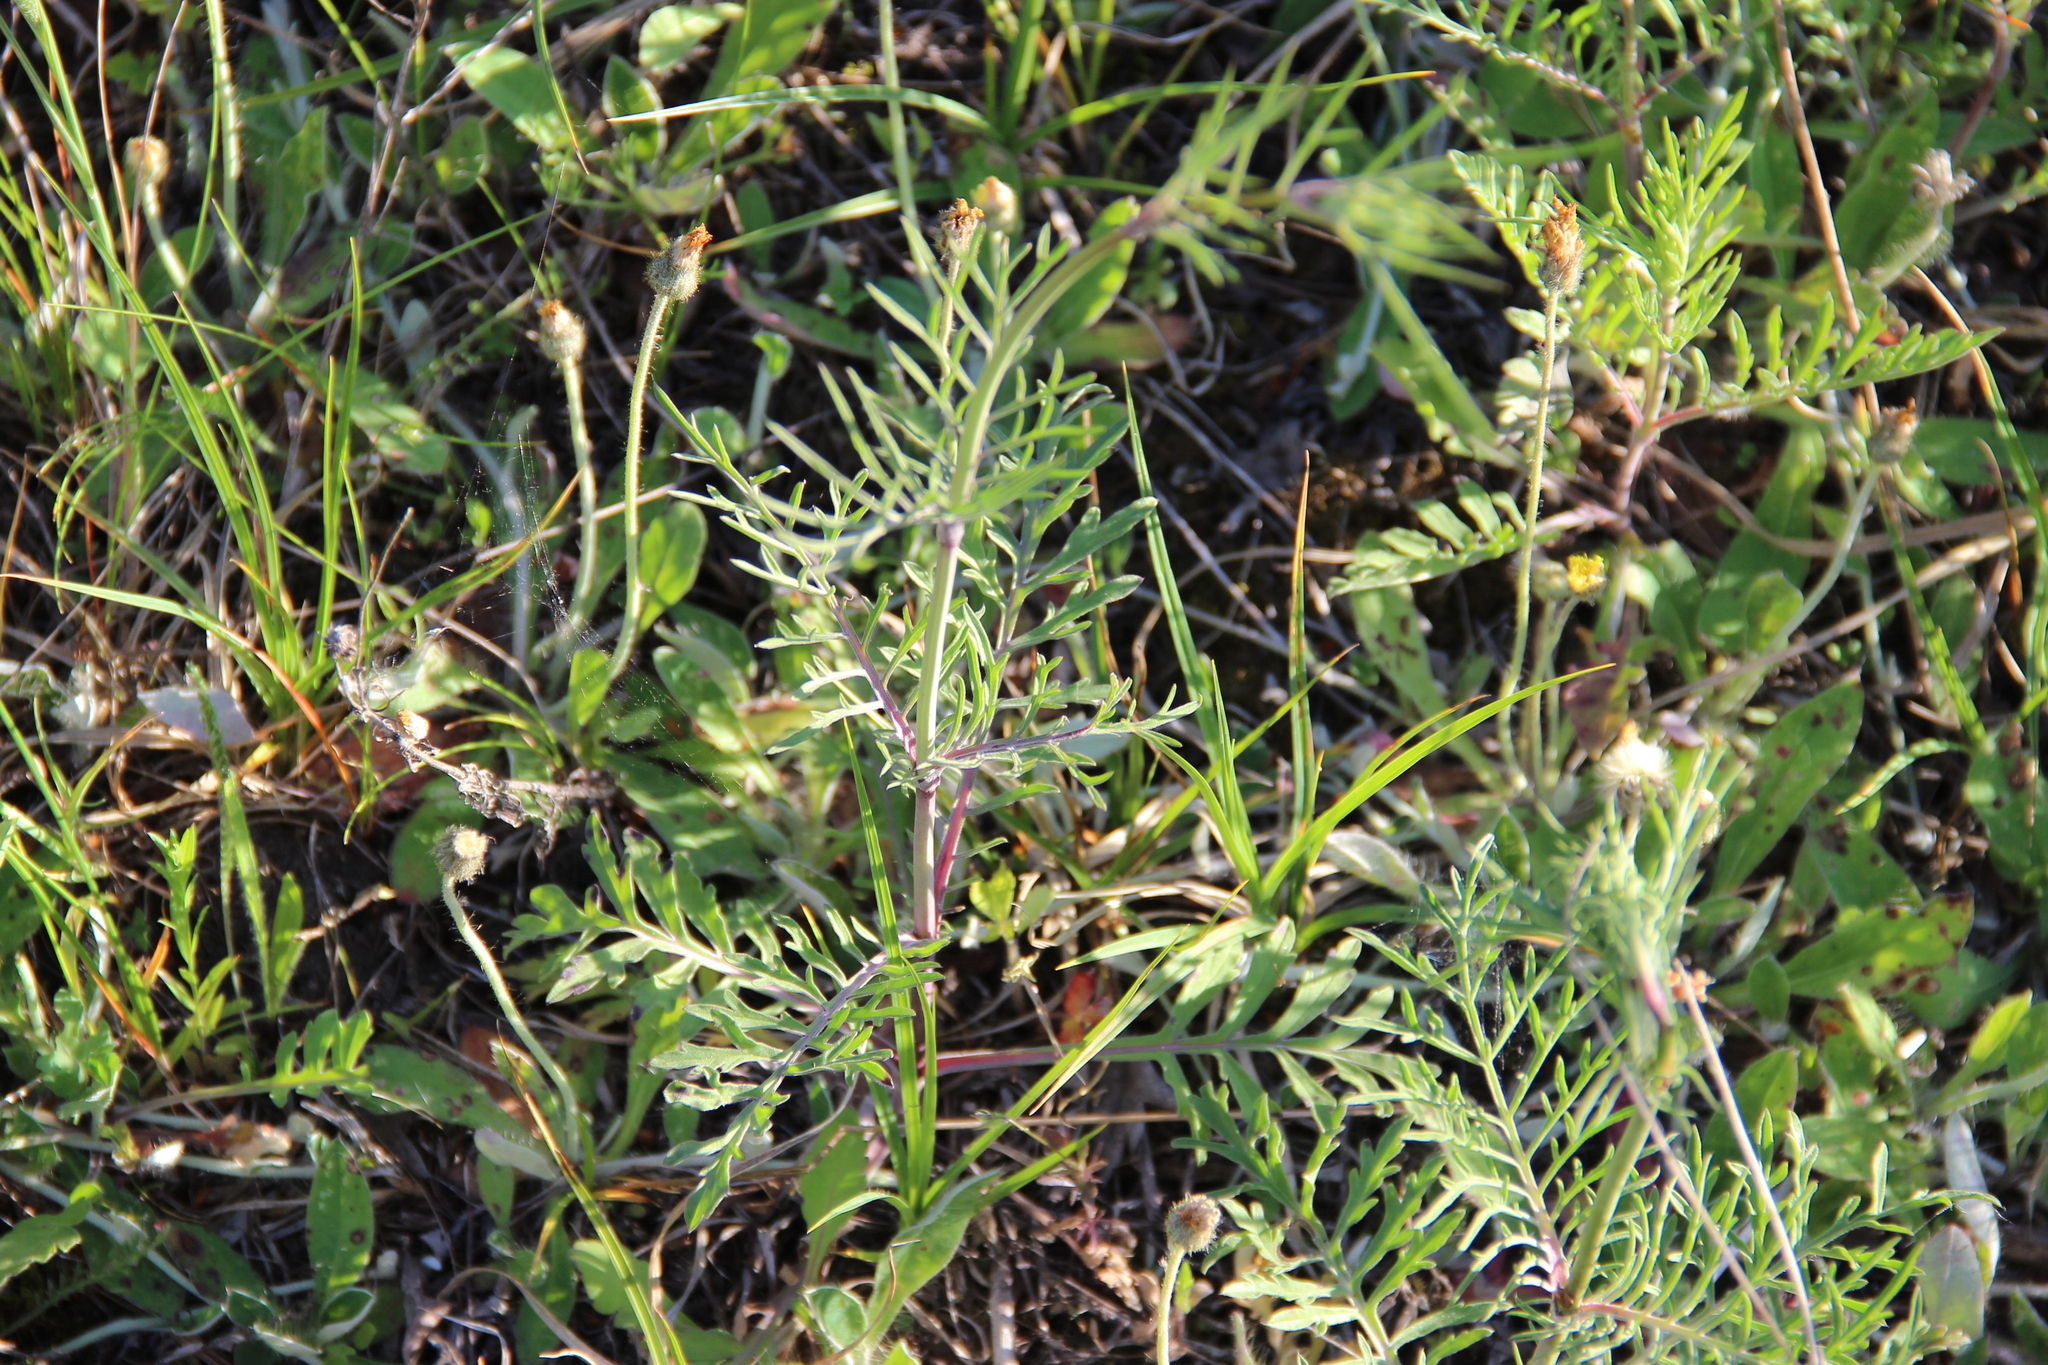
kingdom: Plantae
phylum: Tracheophyta
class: Magnoliopsida
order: Dipsacales
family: Caprifoliaceae
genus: Scabiosa
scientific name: Scabiosa ochroleuca
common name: Cream pincushions
